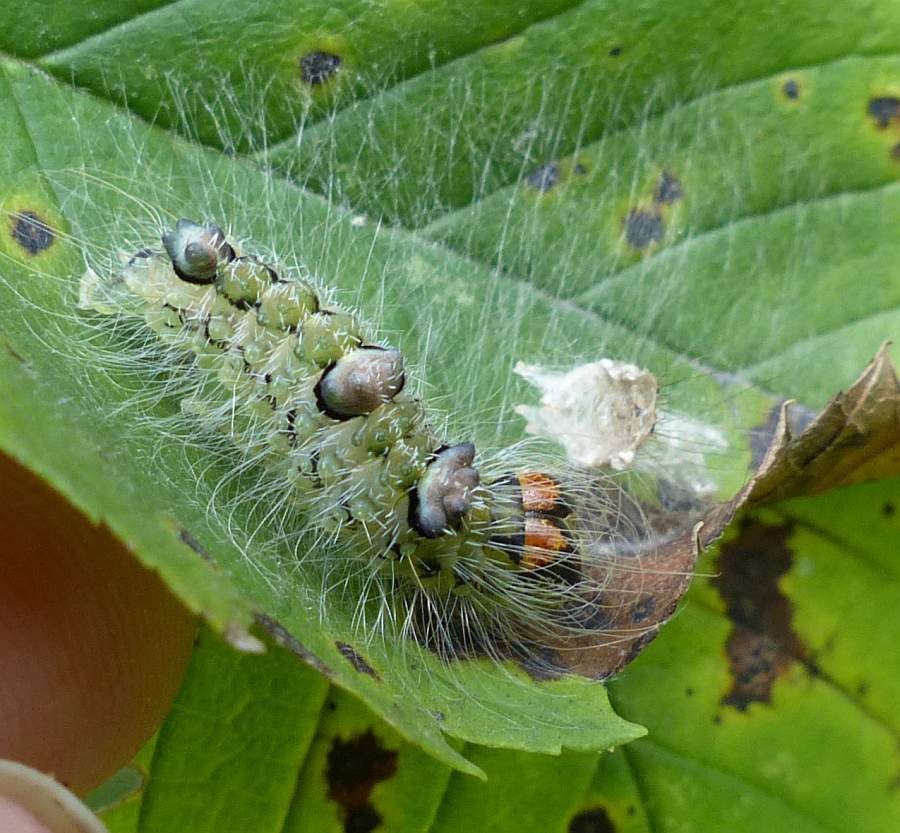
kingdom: Animalia
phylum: Arthropoda
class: Insecta
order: Lepidoptera
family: Noctuidae
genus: Acronicta
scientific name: Acronicta morula
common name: Ochre dagger
